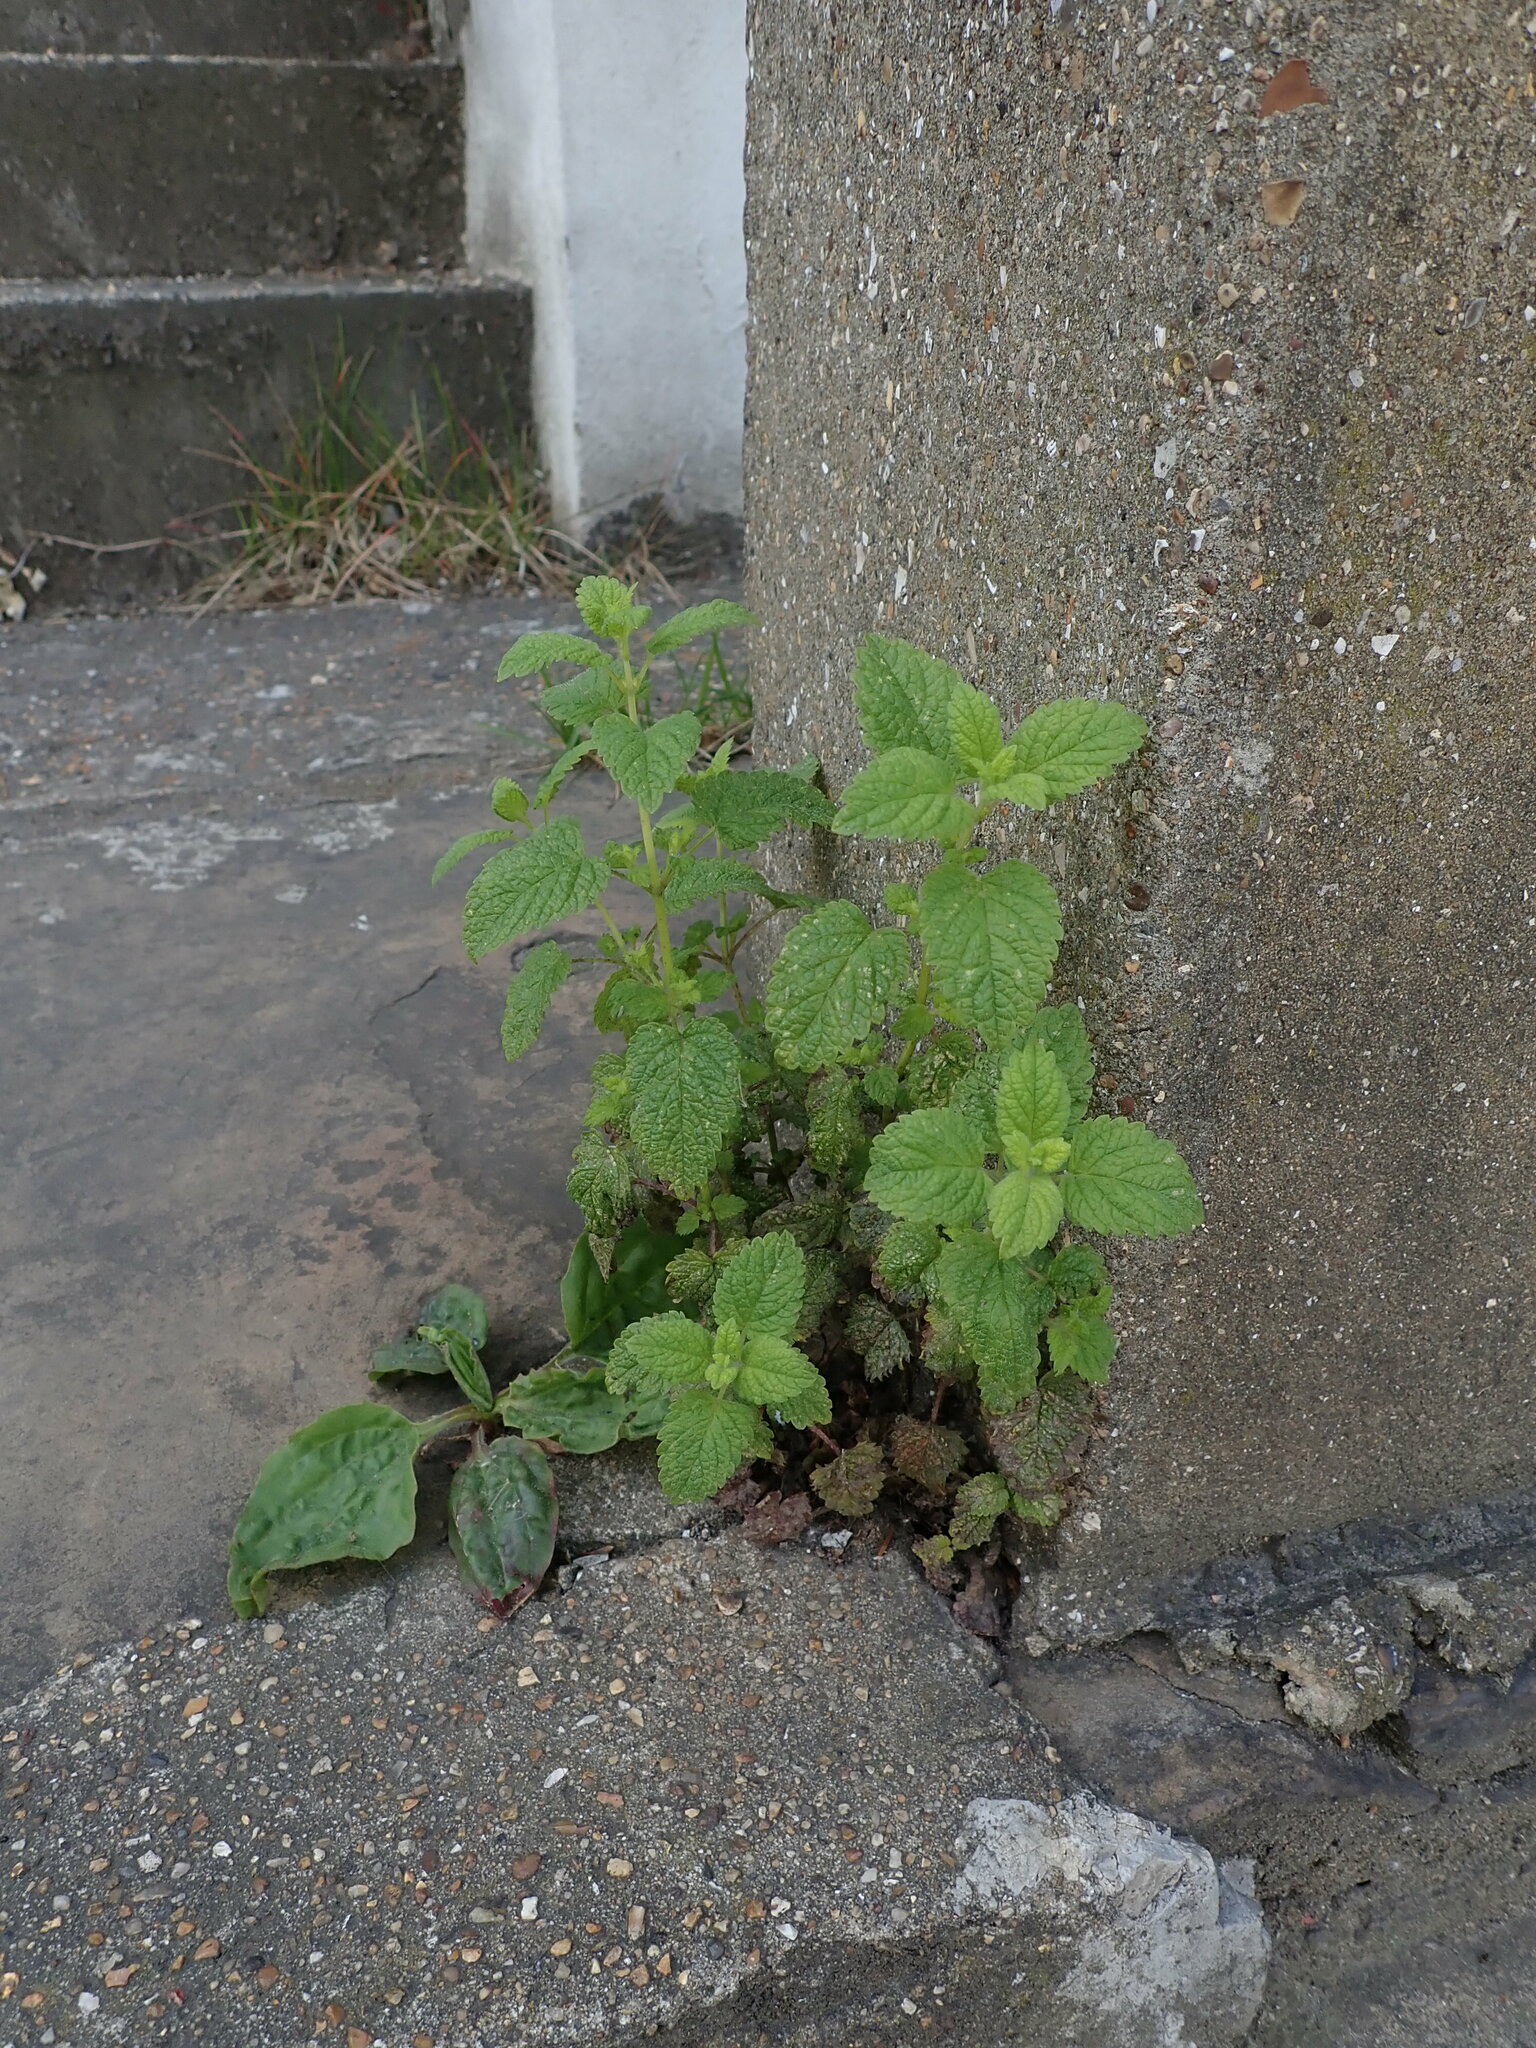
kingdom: Plantae
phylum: Tracheophyta
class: Magnoliopsida
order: Lamiales
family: Lamiaceae
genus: Melissa
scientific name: Melissa officinalis
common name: Balm
